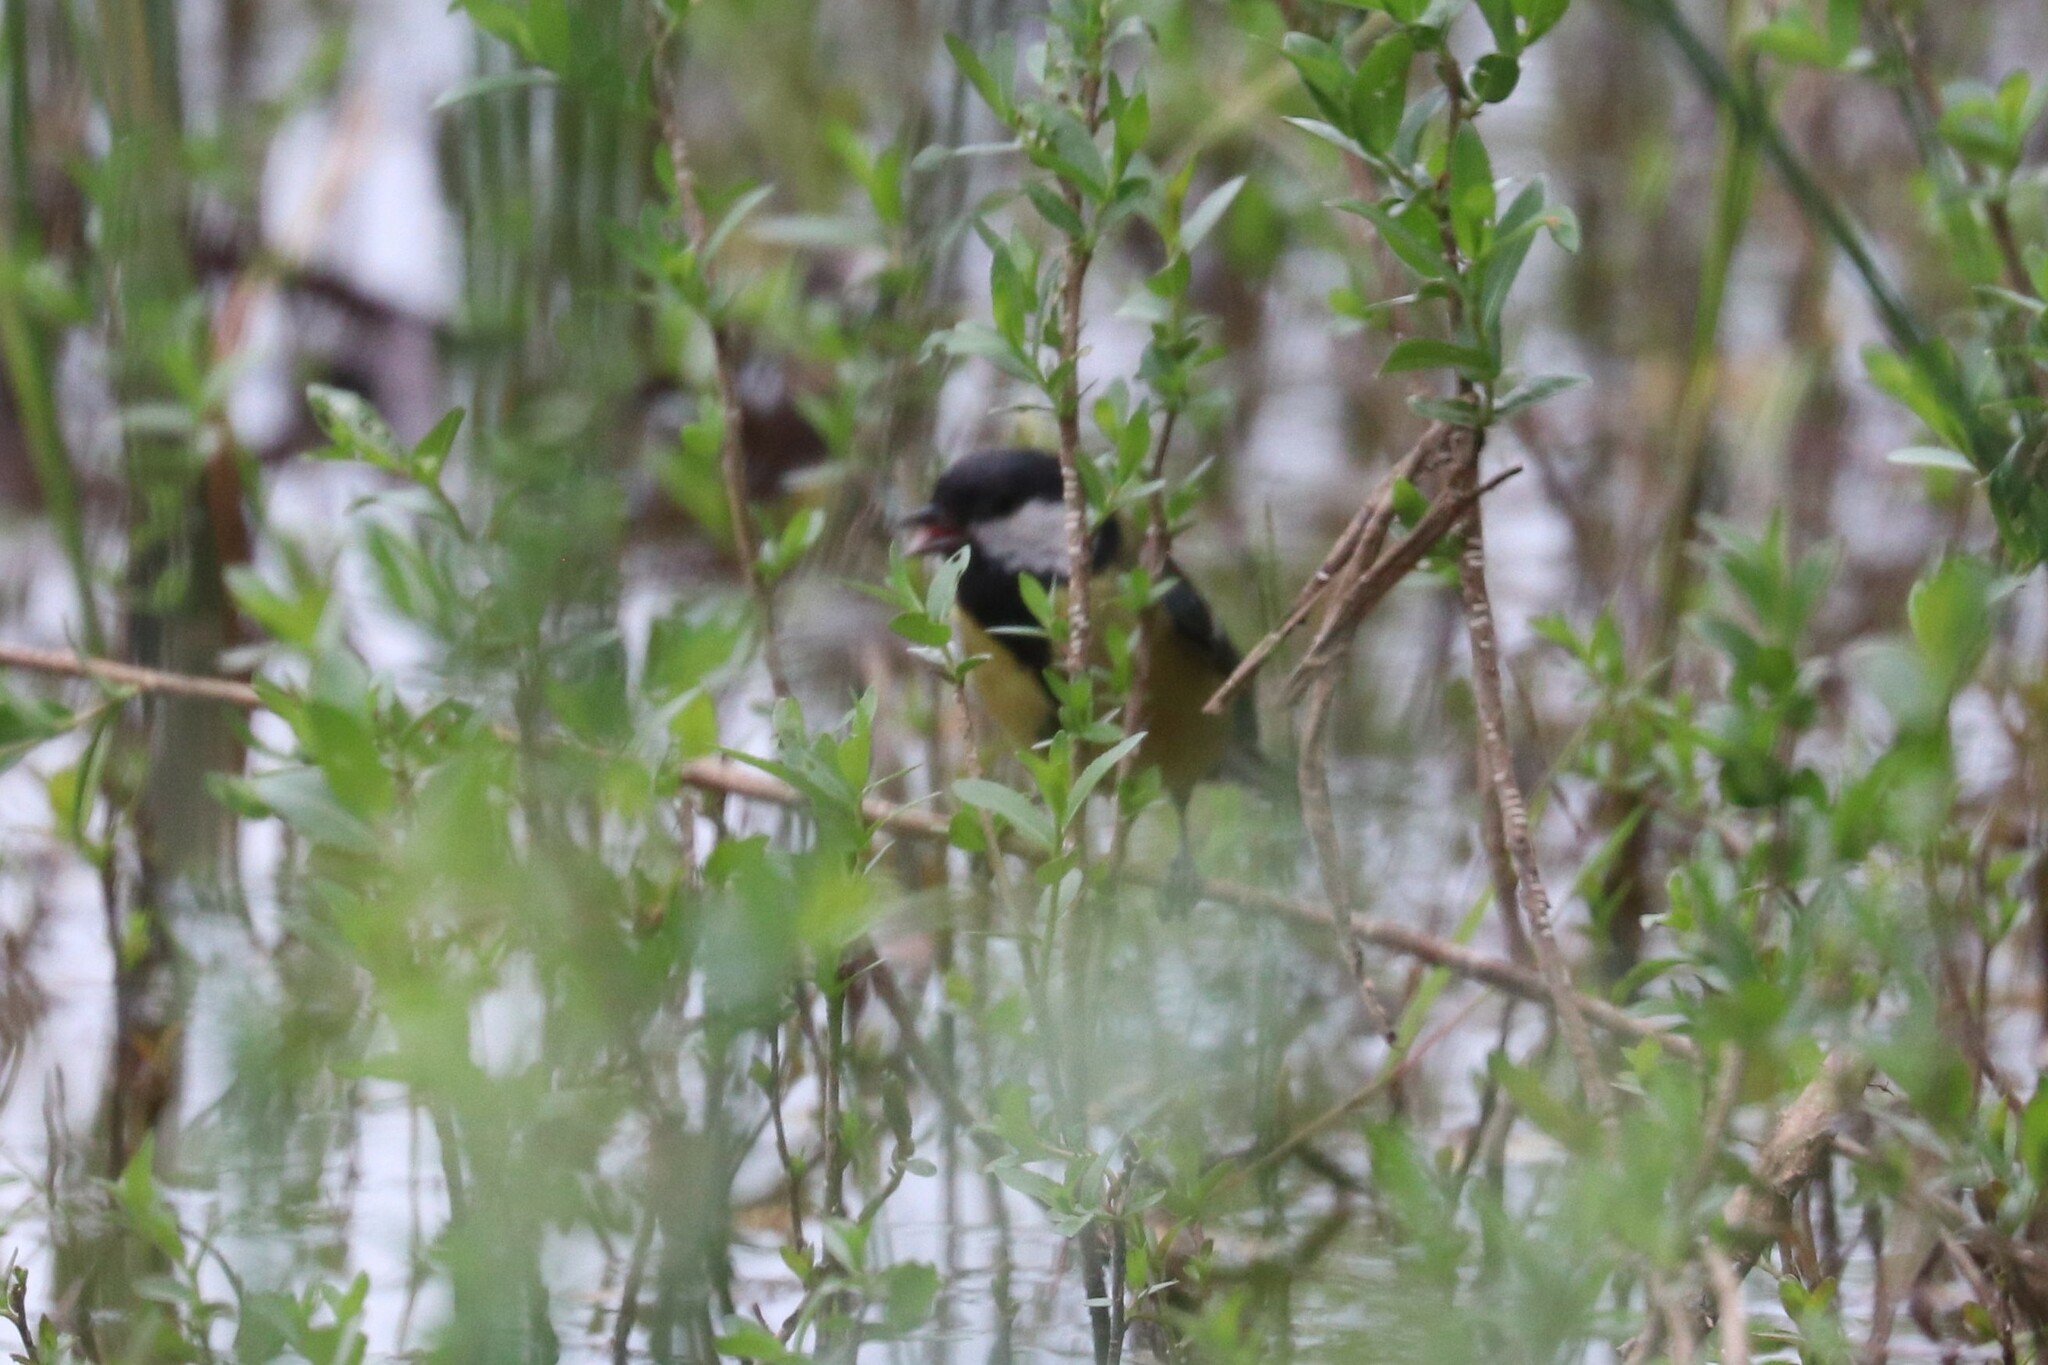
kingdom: Animalia
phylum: Chordata
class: Aves
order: Passeriformes
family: Paridae
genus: Parus
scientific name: Parus major
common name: Great tit
